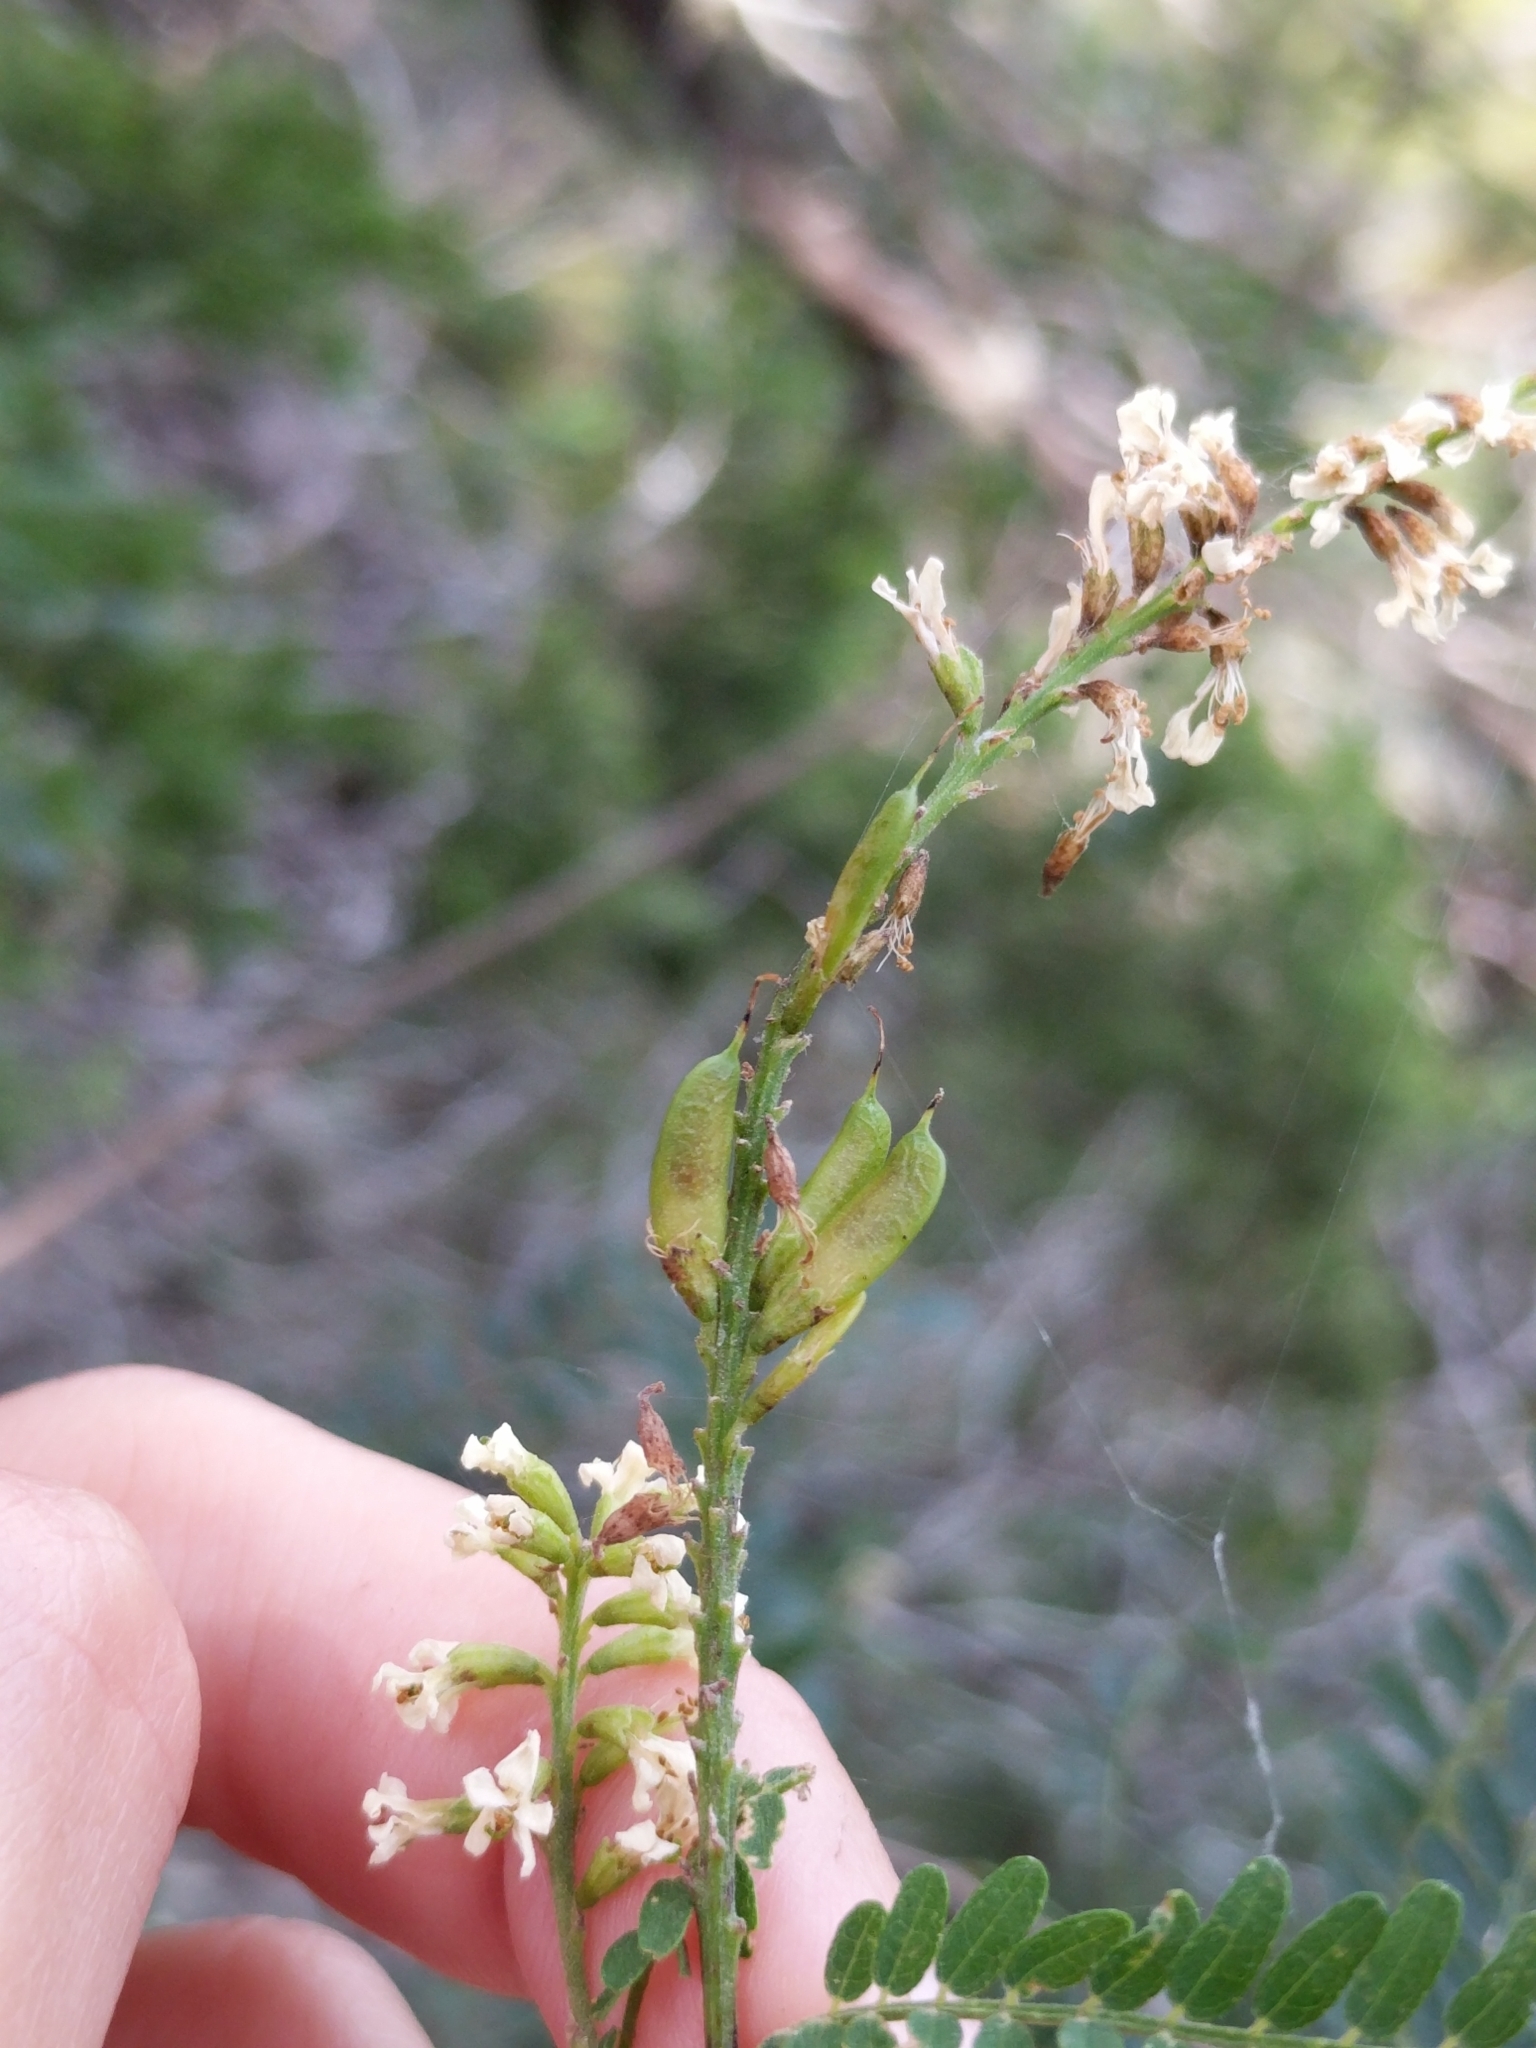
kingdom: Plantae
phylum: Tracheophyta
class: Magnoliopsida
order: Fabales
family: Fabaceae
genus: Eysenhardtia
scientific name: Eysenhardtia texana
